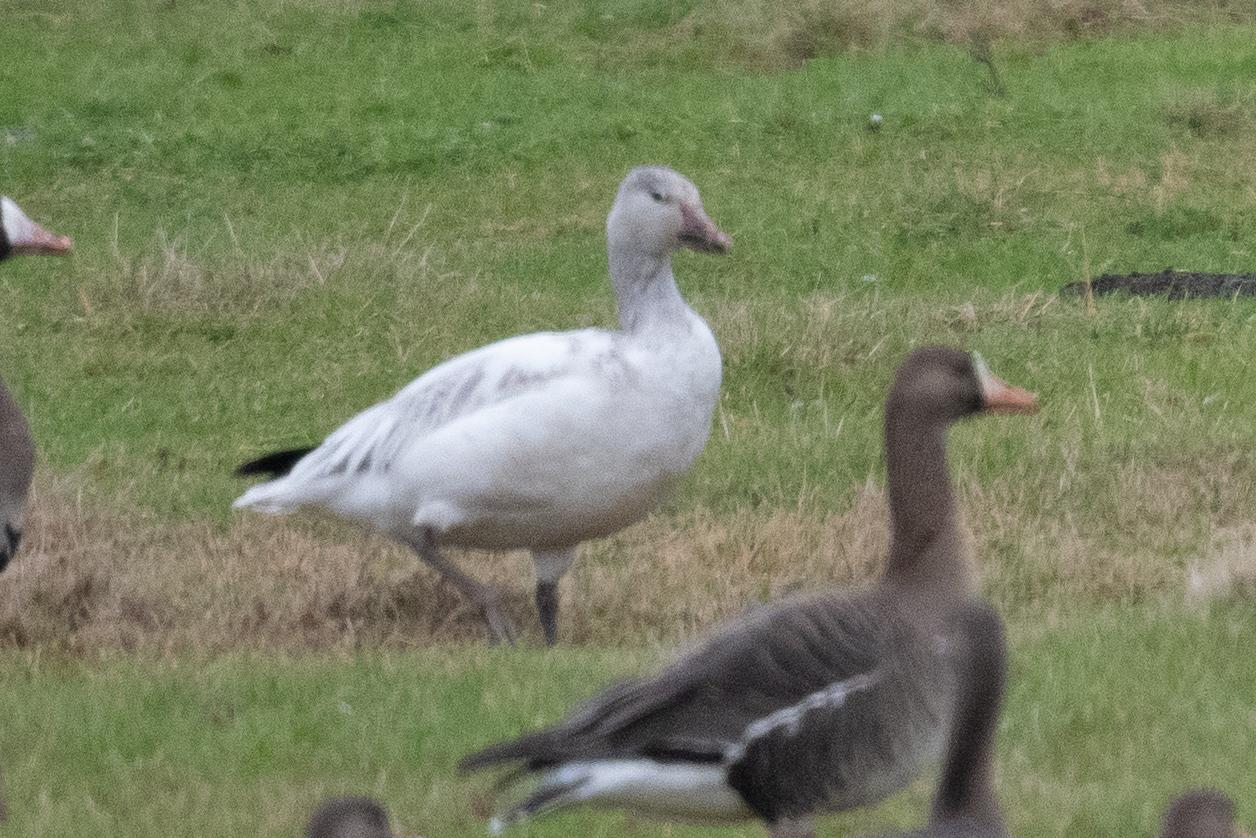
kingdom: Animalia
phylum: Chordata
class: Aves
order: Anseriformes
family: Anatidae
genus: Anser
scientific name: Anser caerulescens
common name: Snow goose
